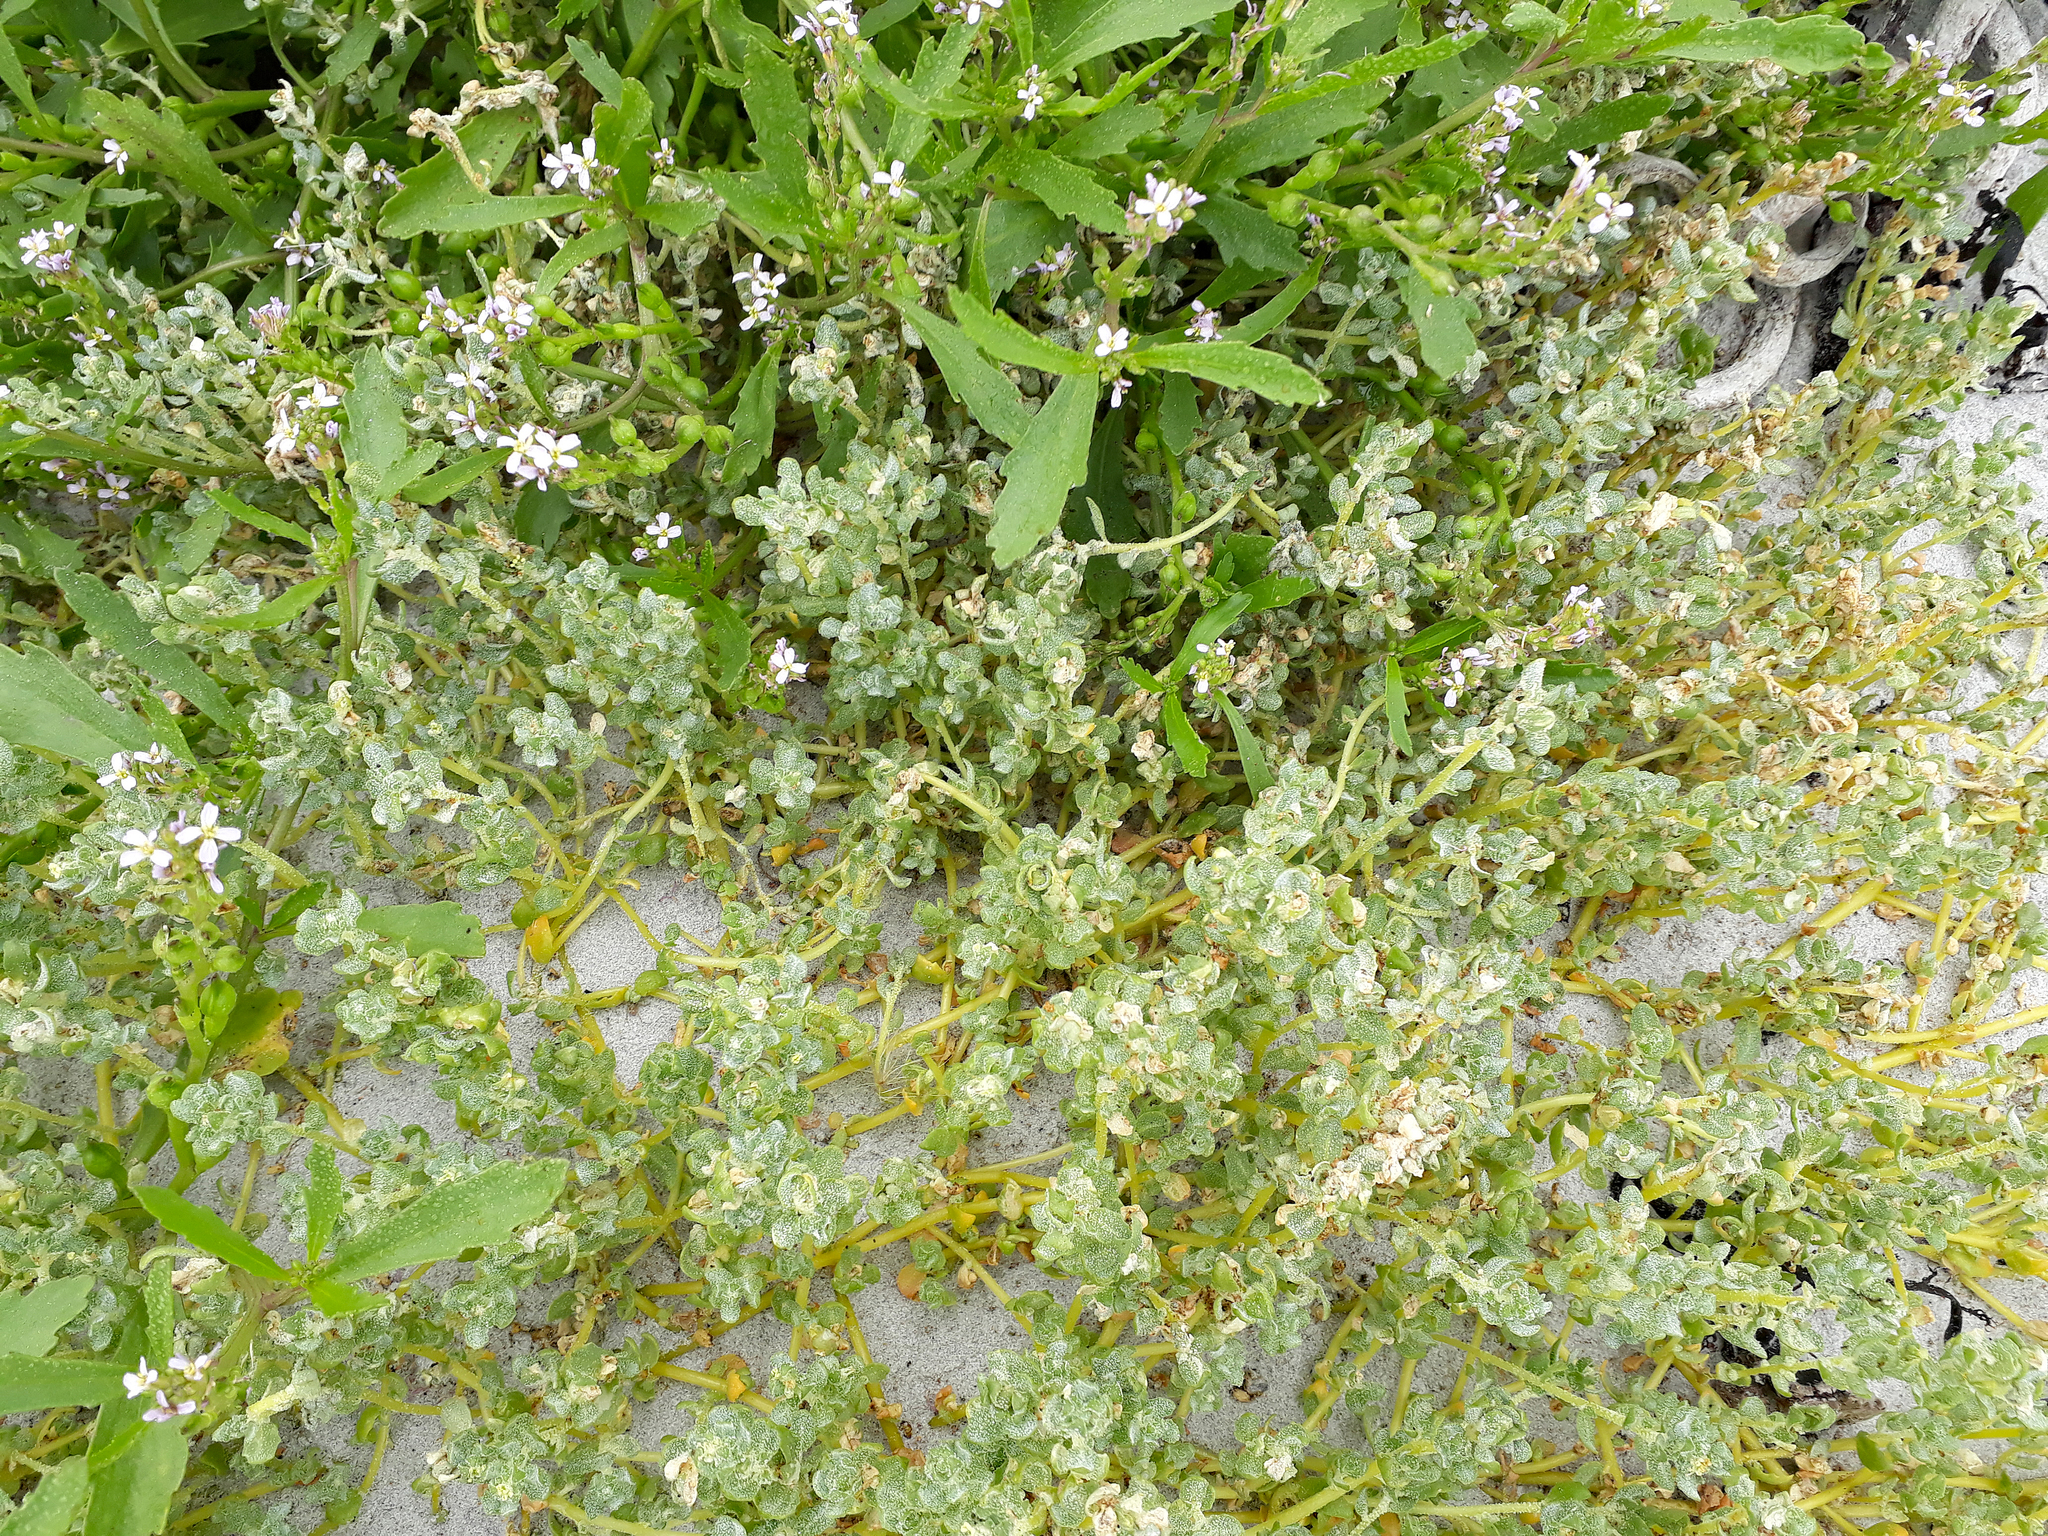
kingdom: Plantae
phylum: Tracheophyta
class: Magnoliopsida
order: Caryophyllales
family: Amaranthaceae
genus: Atriplex
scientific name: Atriplex billardierei
